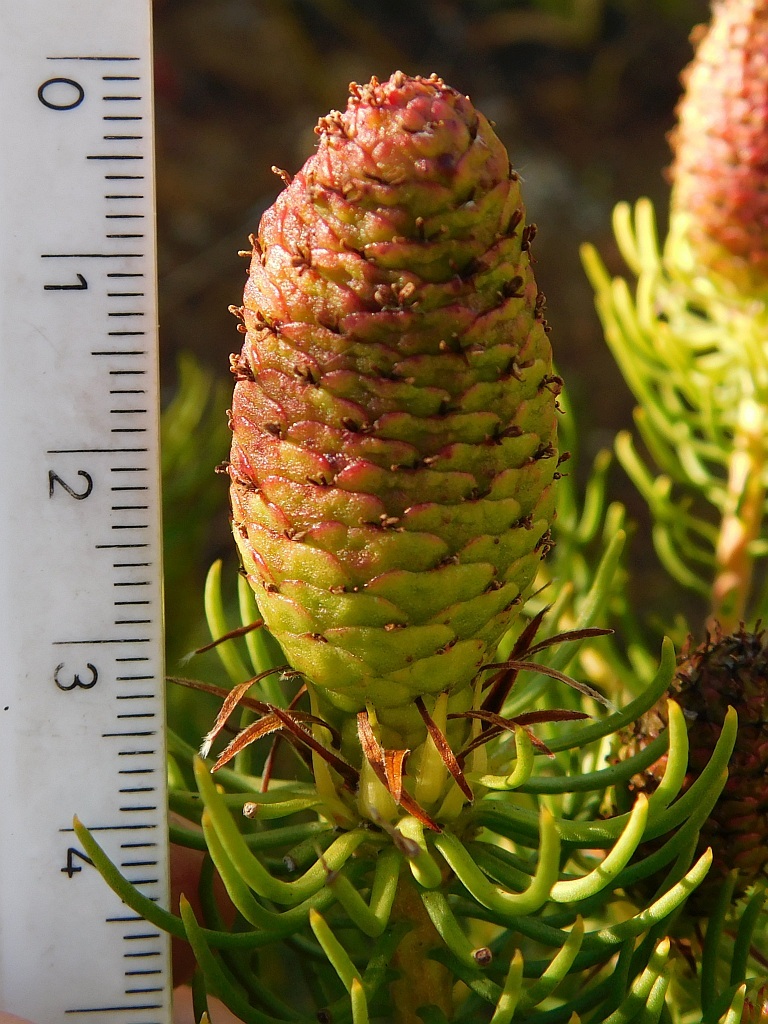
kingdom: Plantae
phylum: Tracheophyta
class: Magnoliopsida
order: Proteales
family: Proteaceae
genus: Leucadendron
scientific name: Leucadendron teretifolium
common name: Needle-leaf conebush
